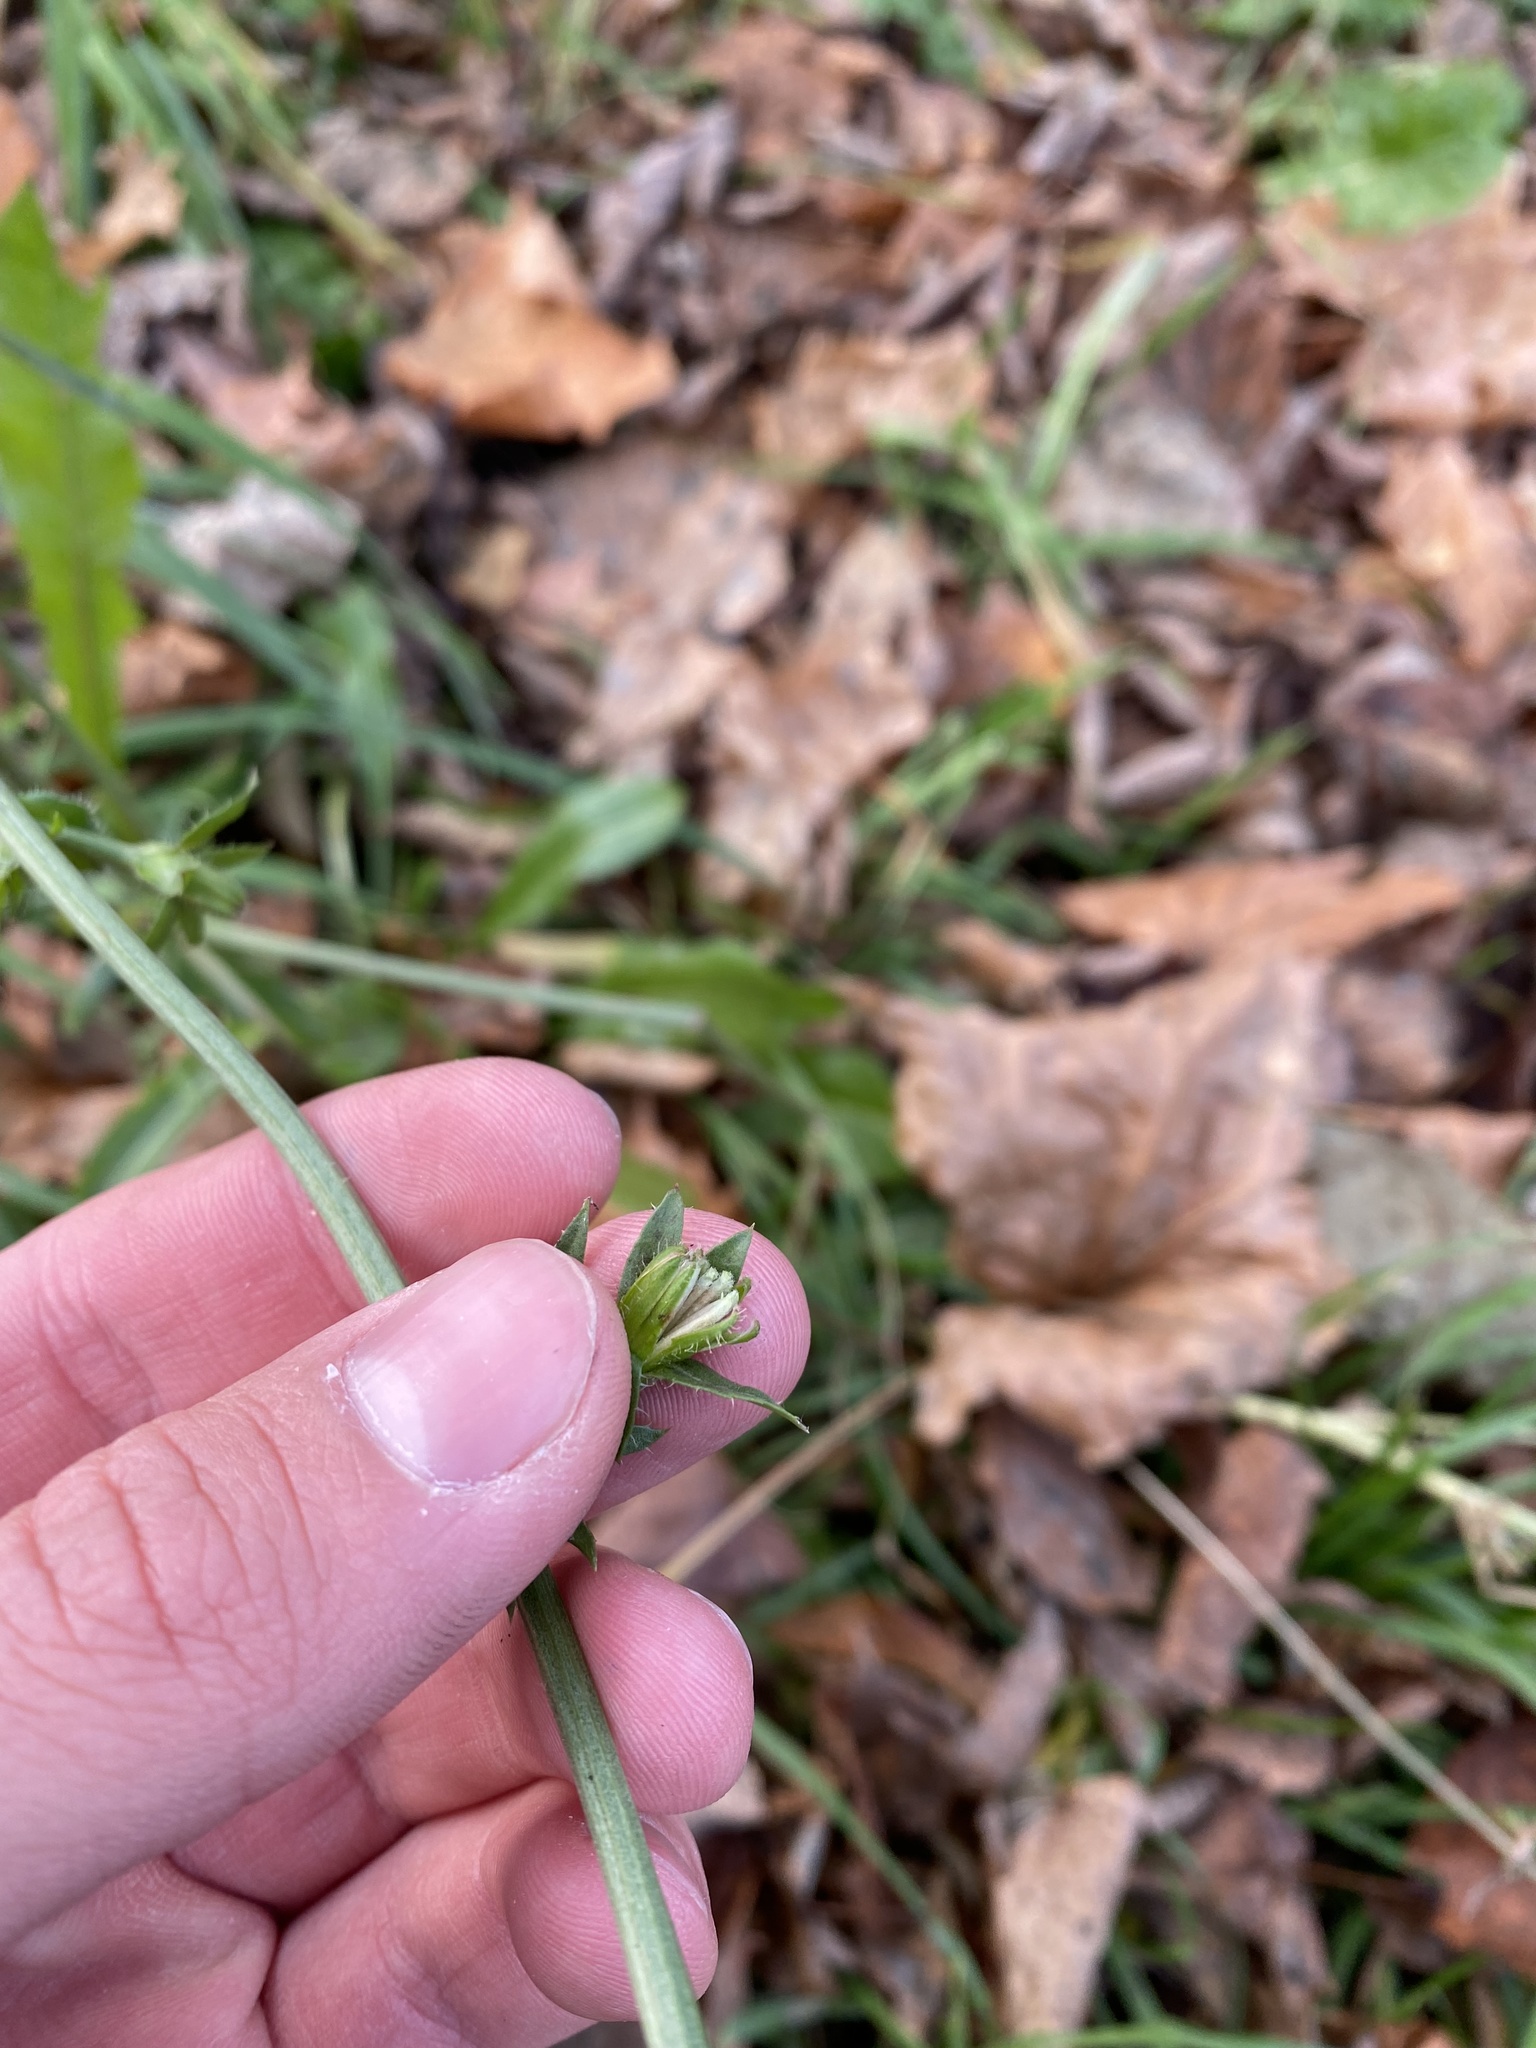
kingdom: Plantae
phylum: Tracheophyta
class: Magnoliopsida
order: Asterales
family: Asteraceae
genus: Cichorium
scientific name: Cichorium intybus
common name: Chicory
